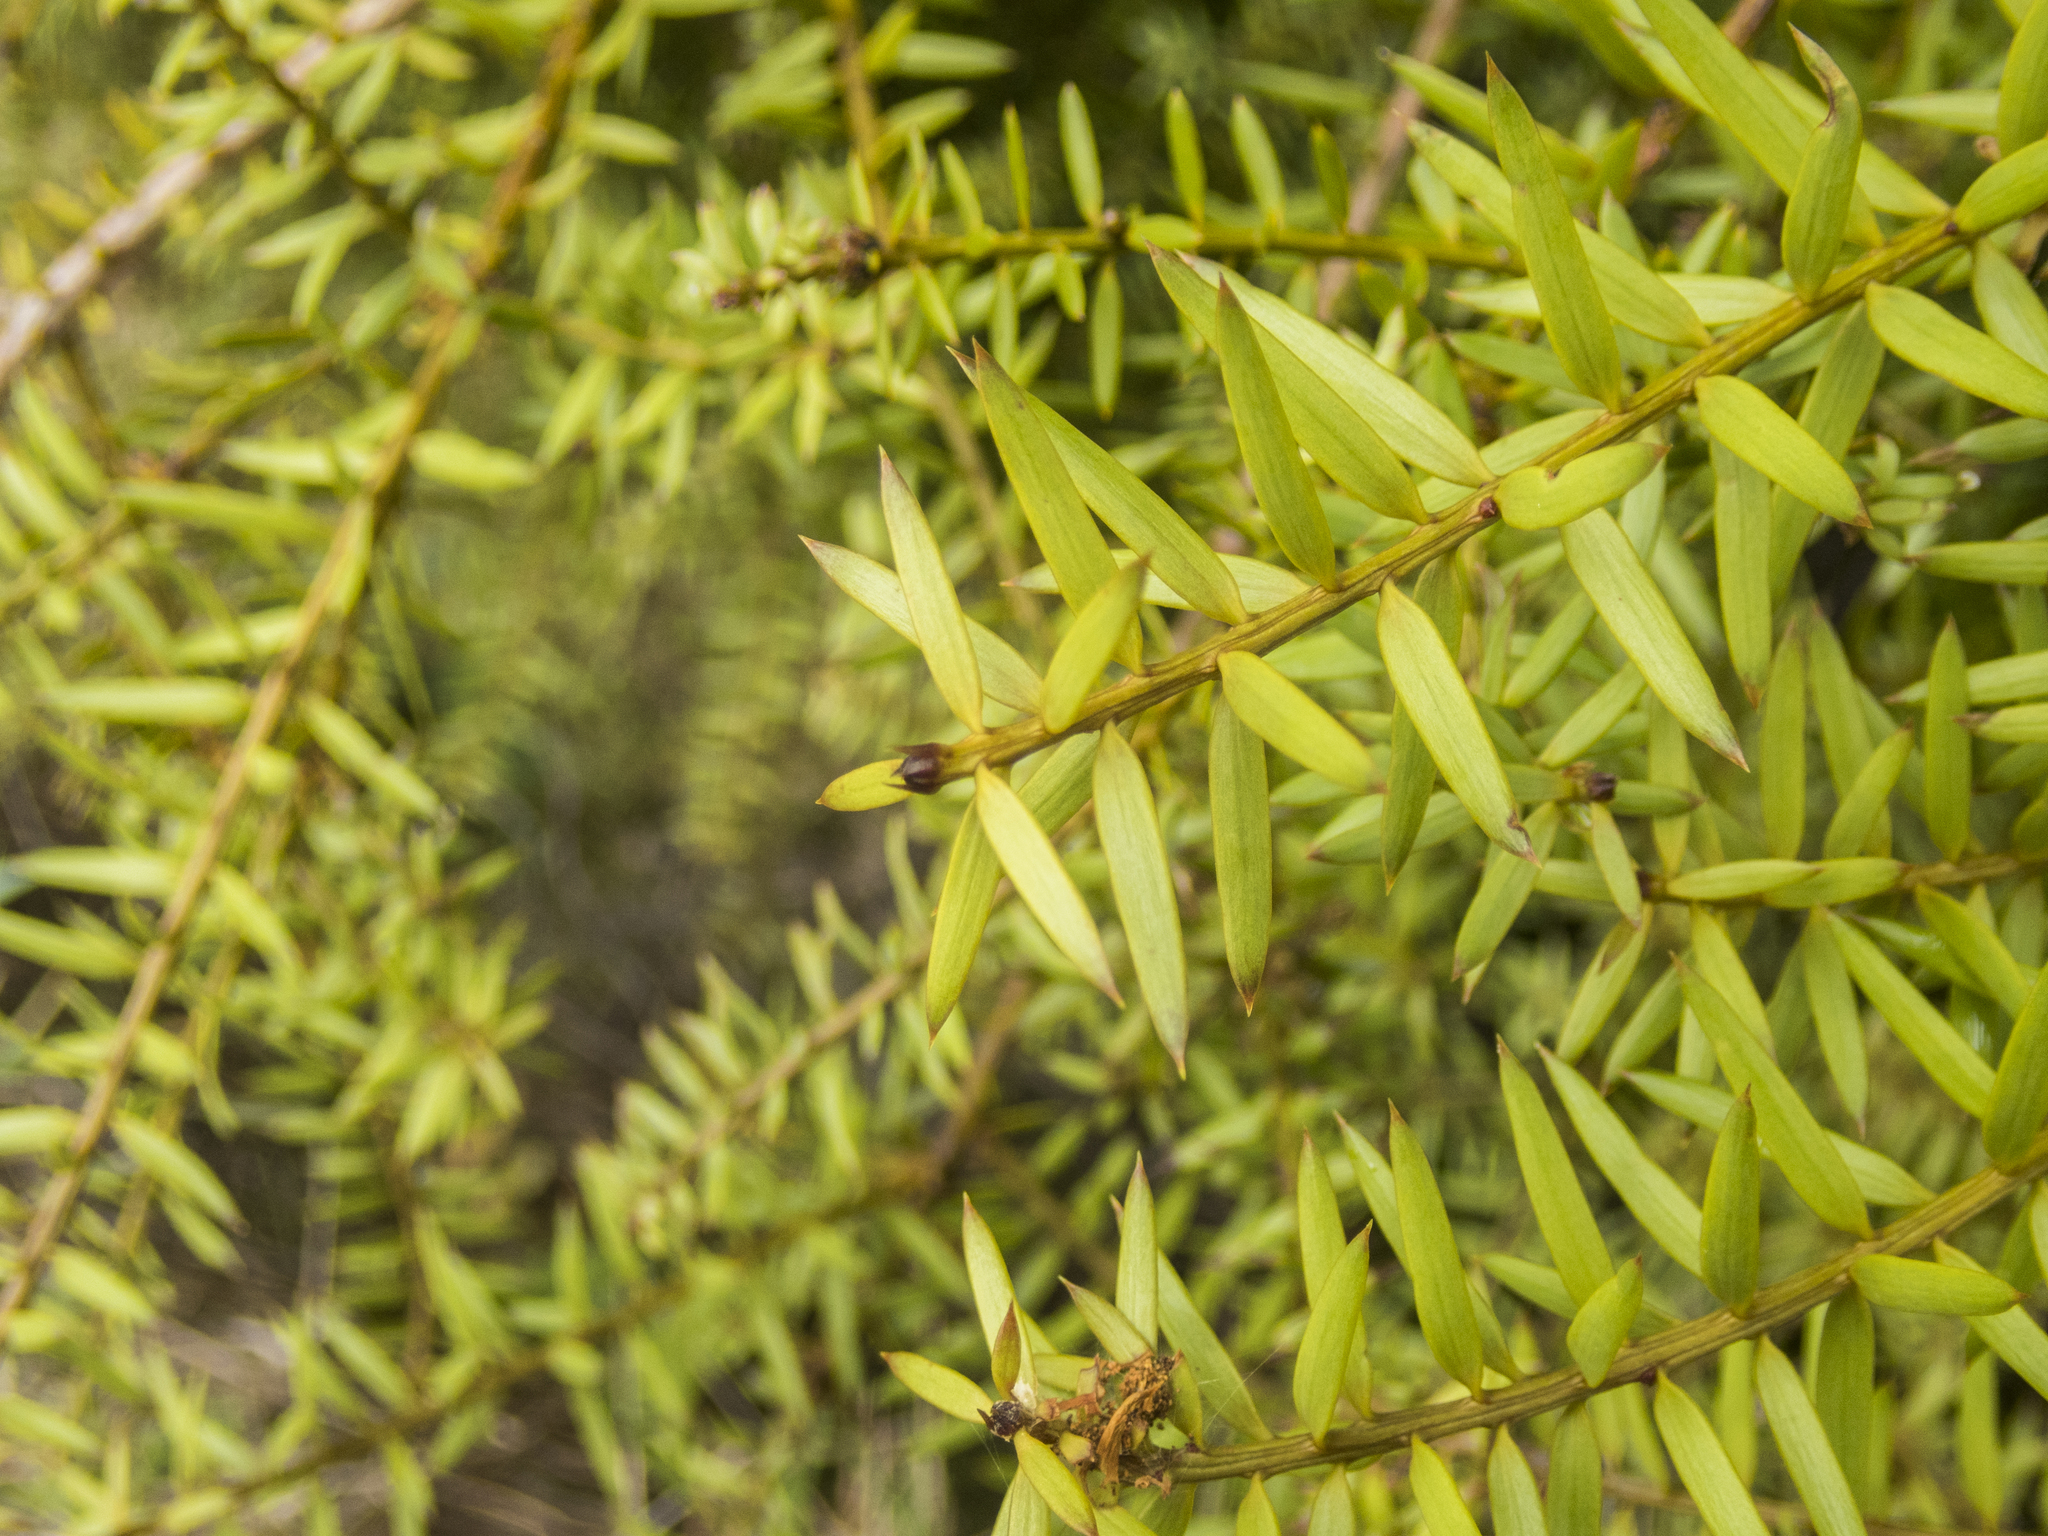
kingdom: Plantae
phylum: Tracheophyta
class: Pinopsida
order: Pinales
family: Podocarpaceae
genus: Podocarpus
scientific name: Podocarpus totara
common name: Totara
